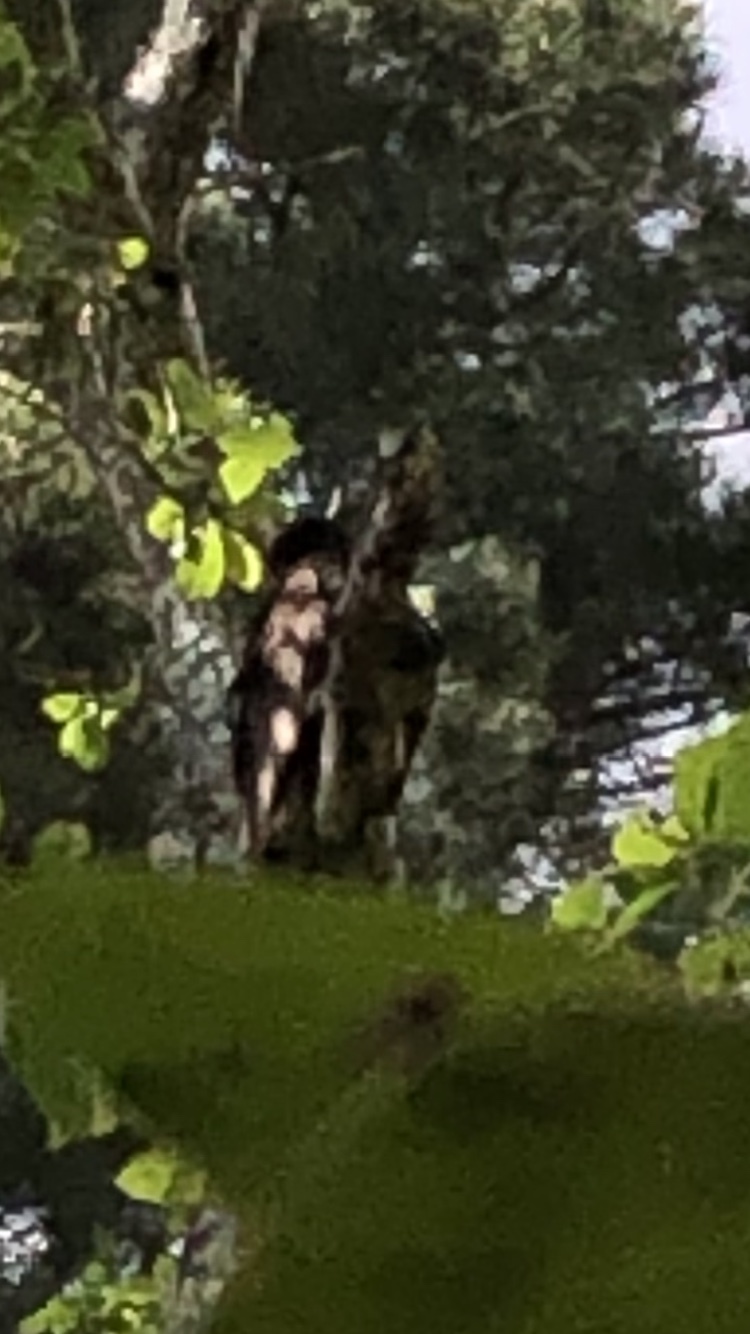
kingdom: Animalia
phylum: Chordata
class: Aves
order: Accipitriformes
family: Cathartidae
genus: Cathartes
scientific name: Cathartes aura
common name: Turkey vulture
